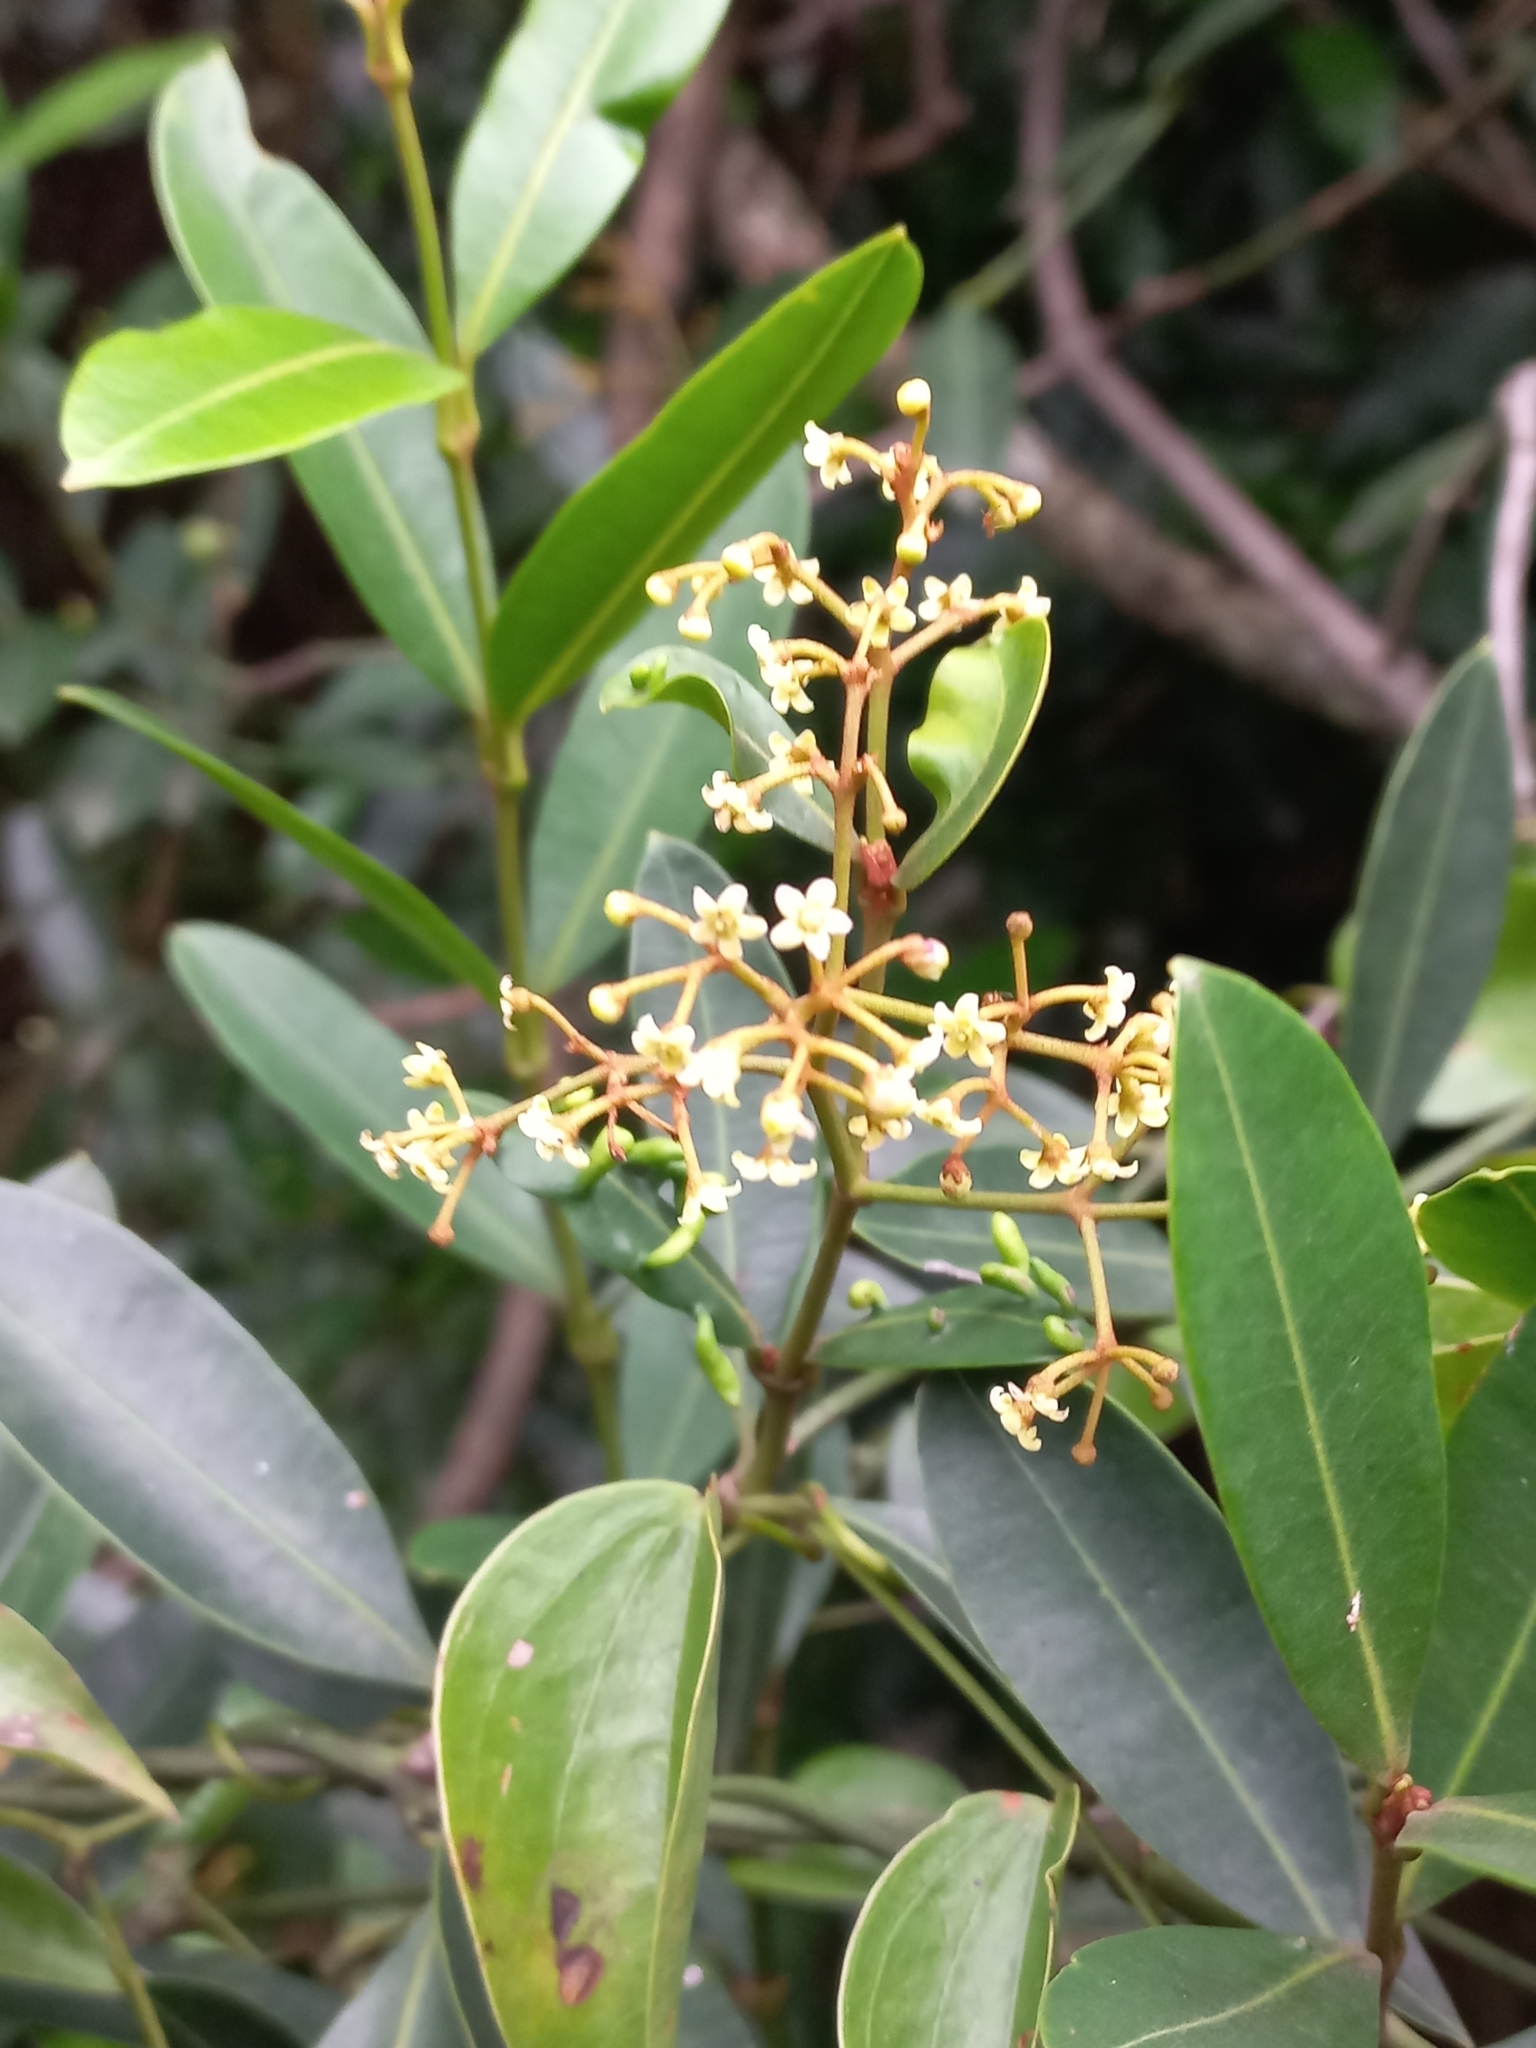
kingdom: Plantae
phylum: Tracheophyta
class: Magnoliopsida
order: Gentianales
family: Apocynaceae
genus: Secamone
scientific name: Secamone alpini
